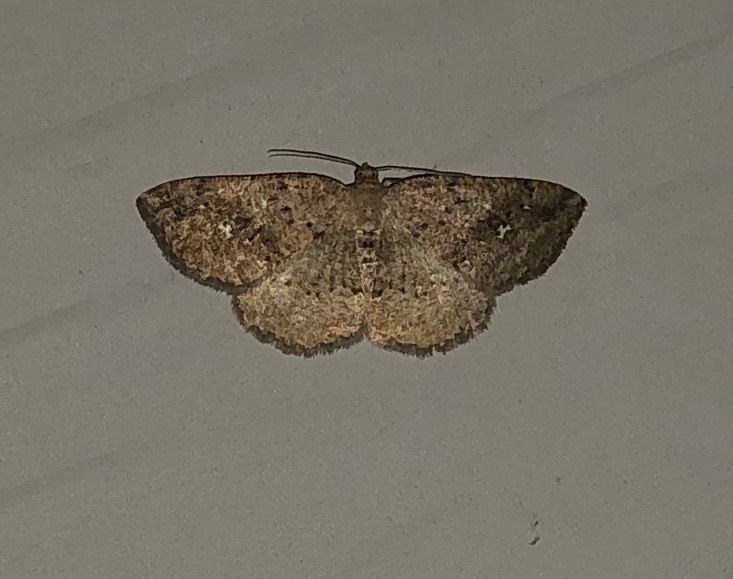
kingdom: Animalia
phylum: Arthropoda
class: Insecta
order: Lepidoptera
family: Geometridae
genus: Homochlodes
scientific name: Homochlodes fritillaria
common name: Pale homochlodes
